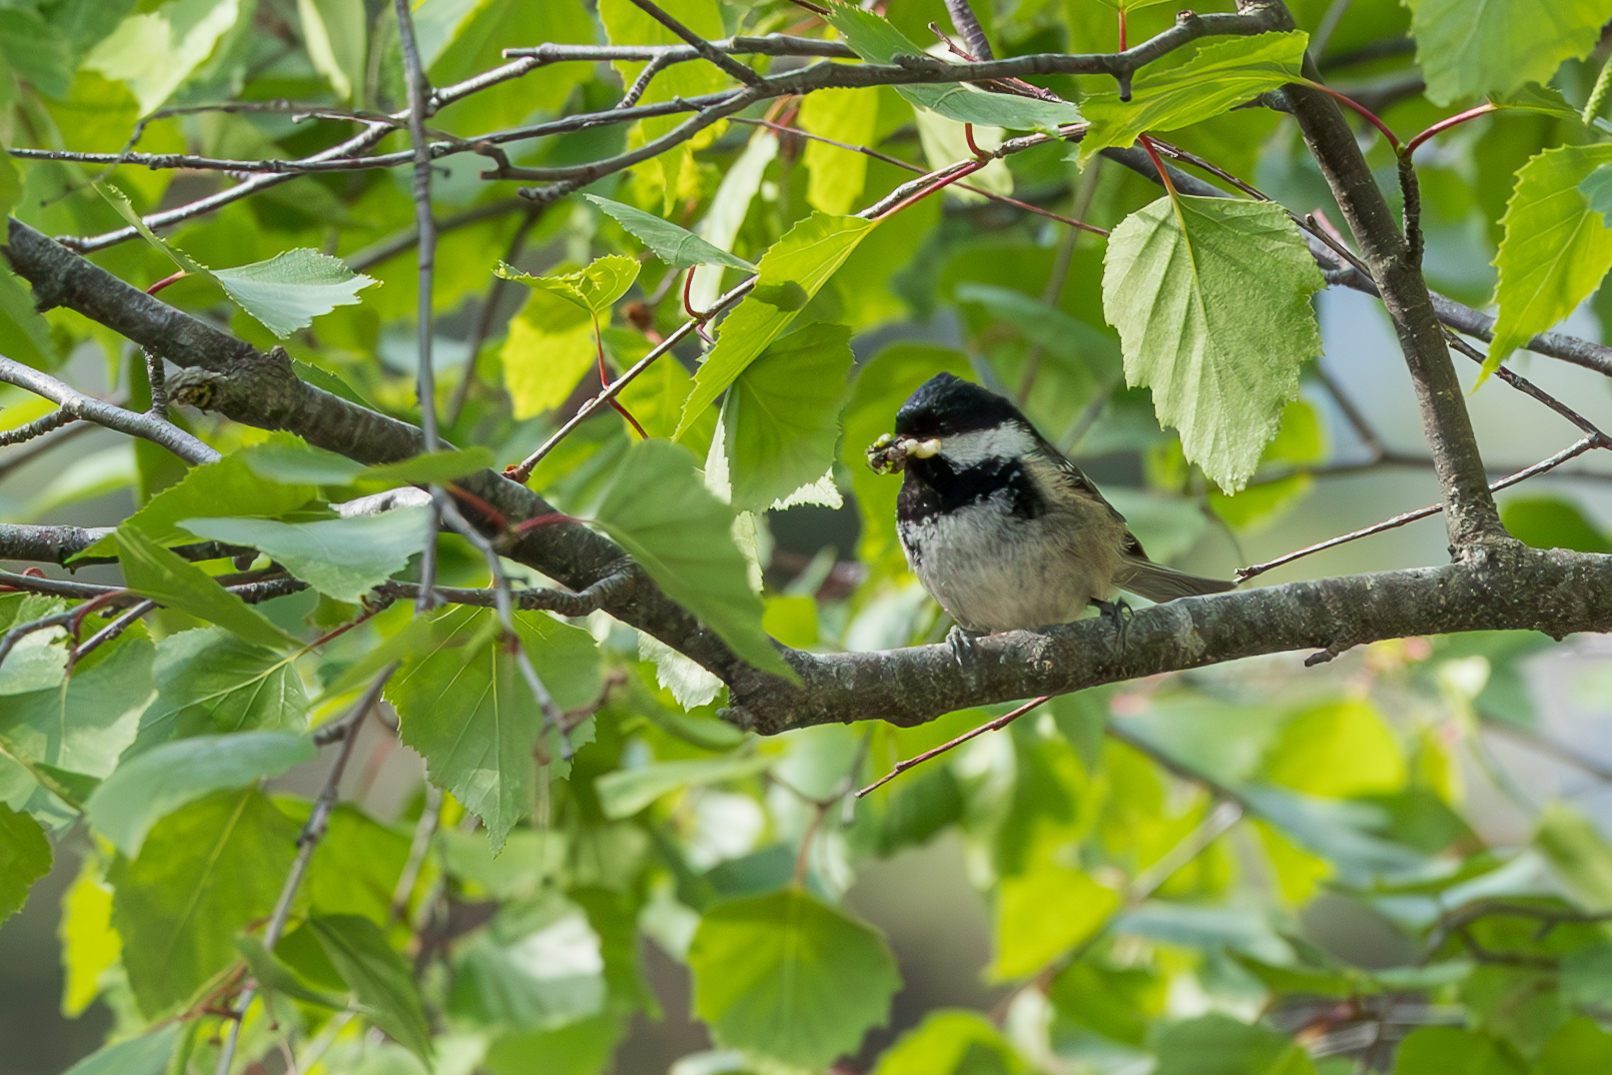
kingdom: Animalia
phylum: Chordata
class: Aves
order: Passeriformes
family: Paridae
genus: Periparus
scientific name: Periparus ater
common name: Coal tit
